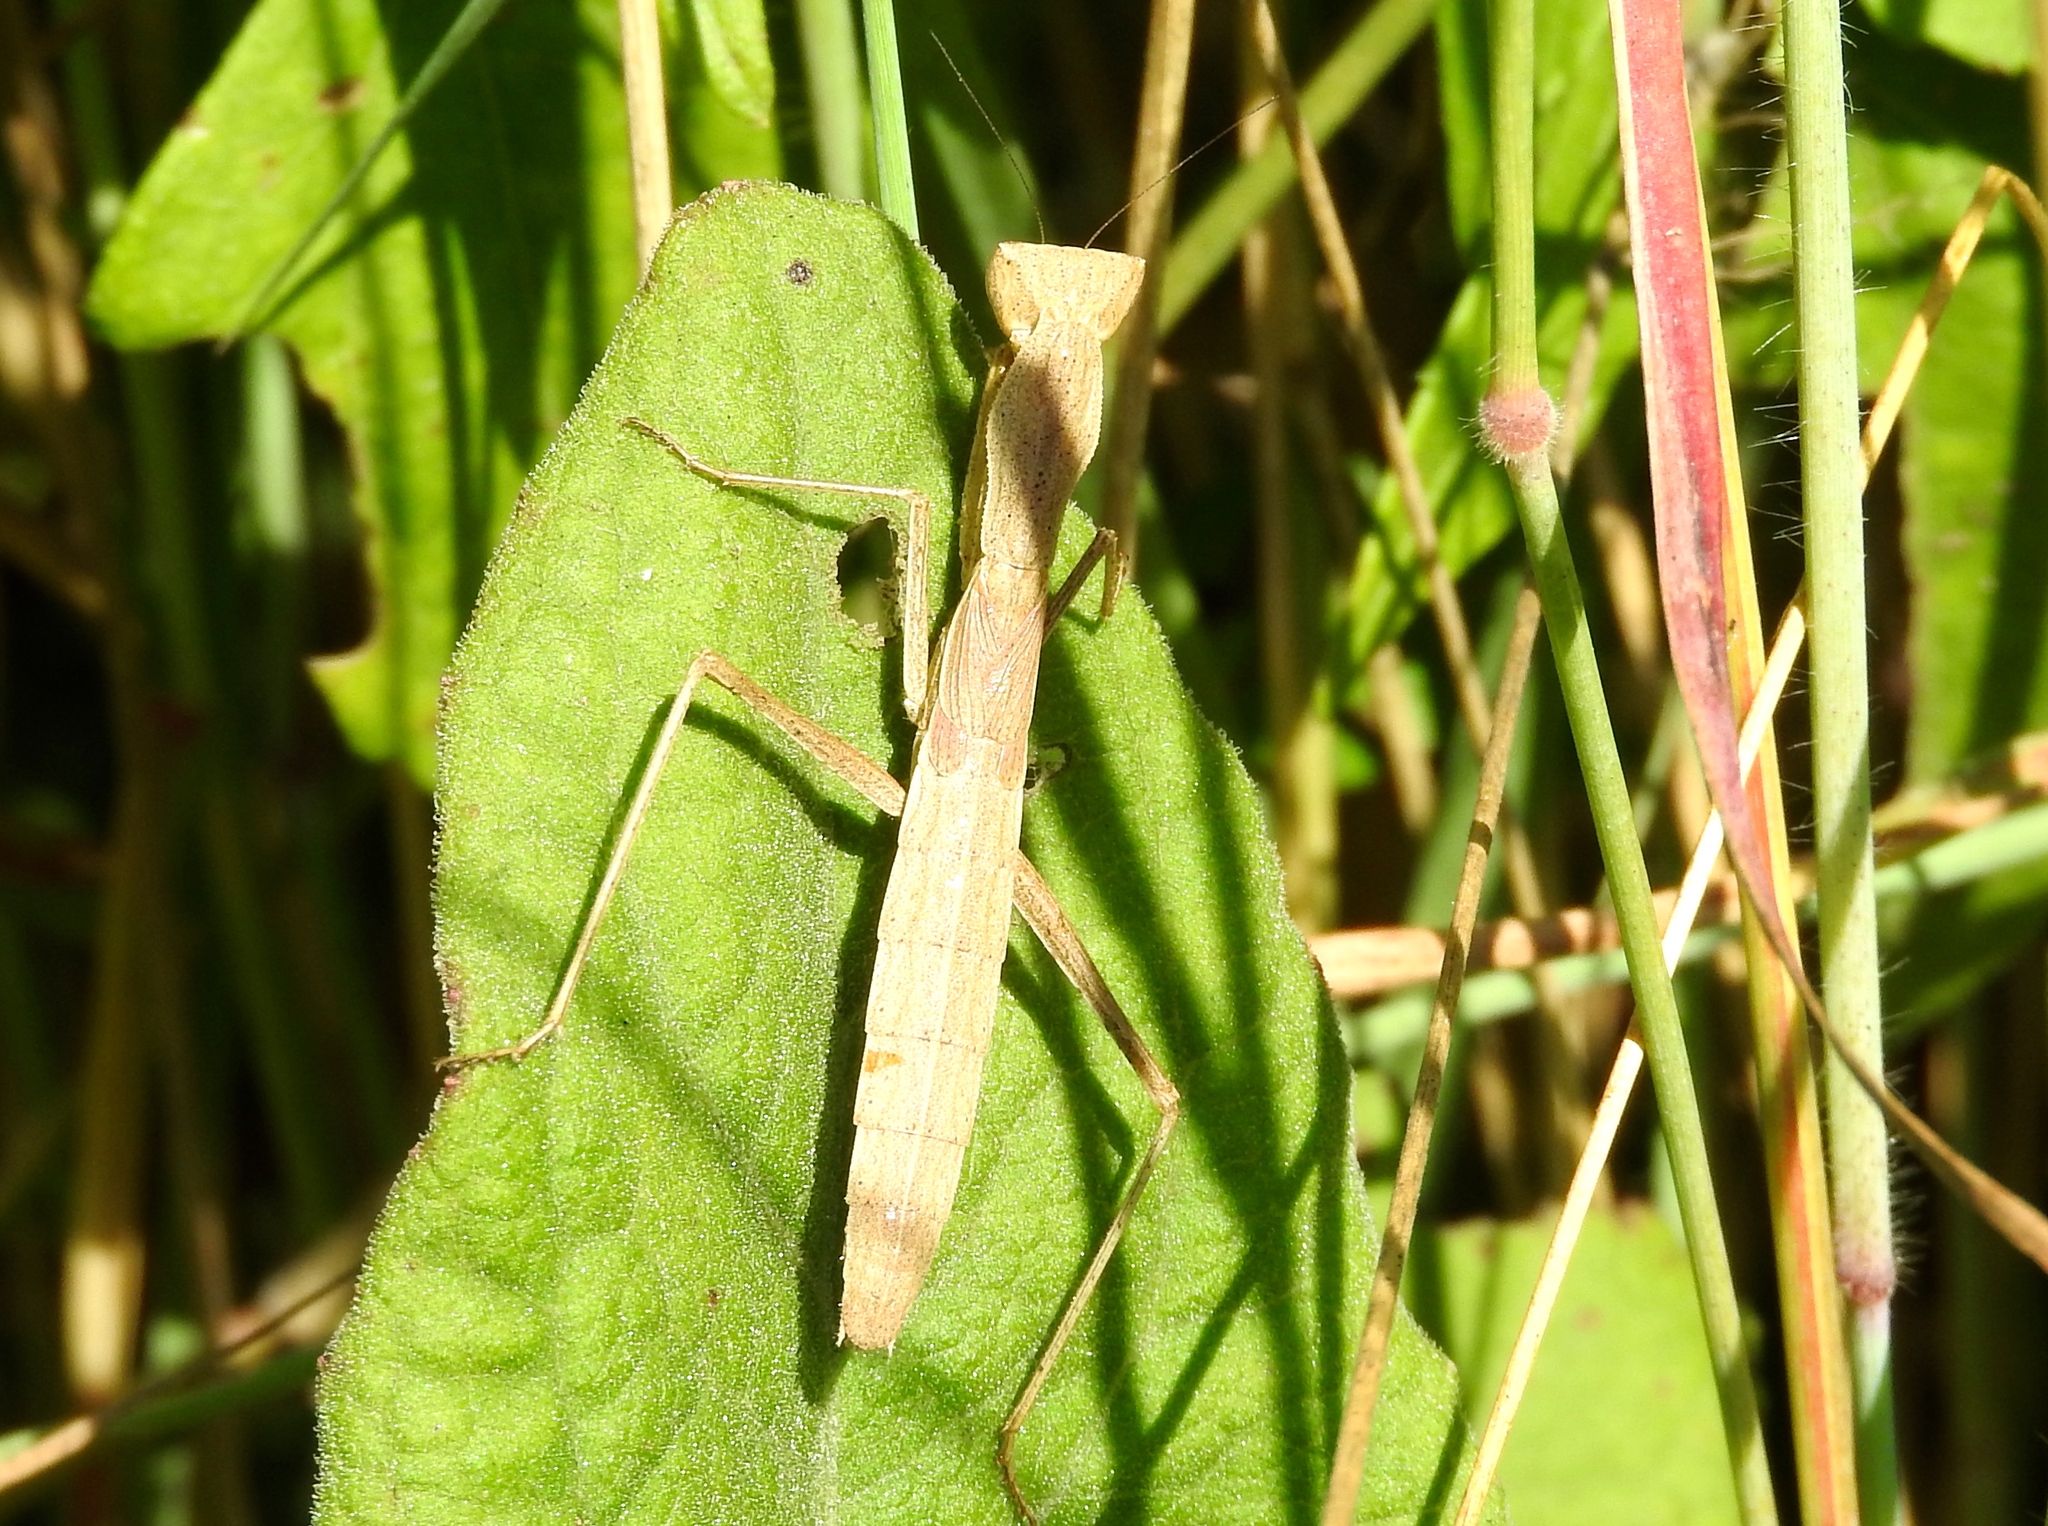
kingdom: Animalia
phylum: Arthropoda
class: Insecta
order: Mantodea
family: Amelidae
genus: Yersinia
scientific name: Yersinia mexicana
